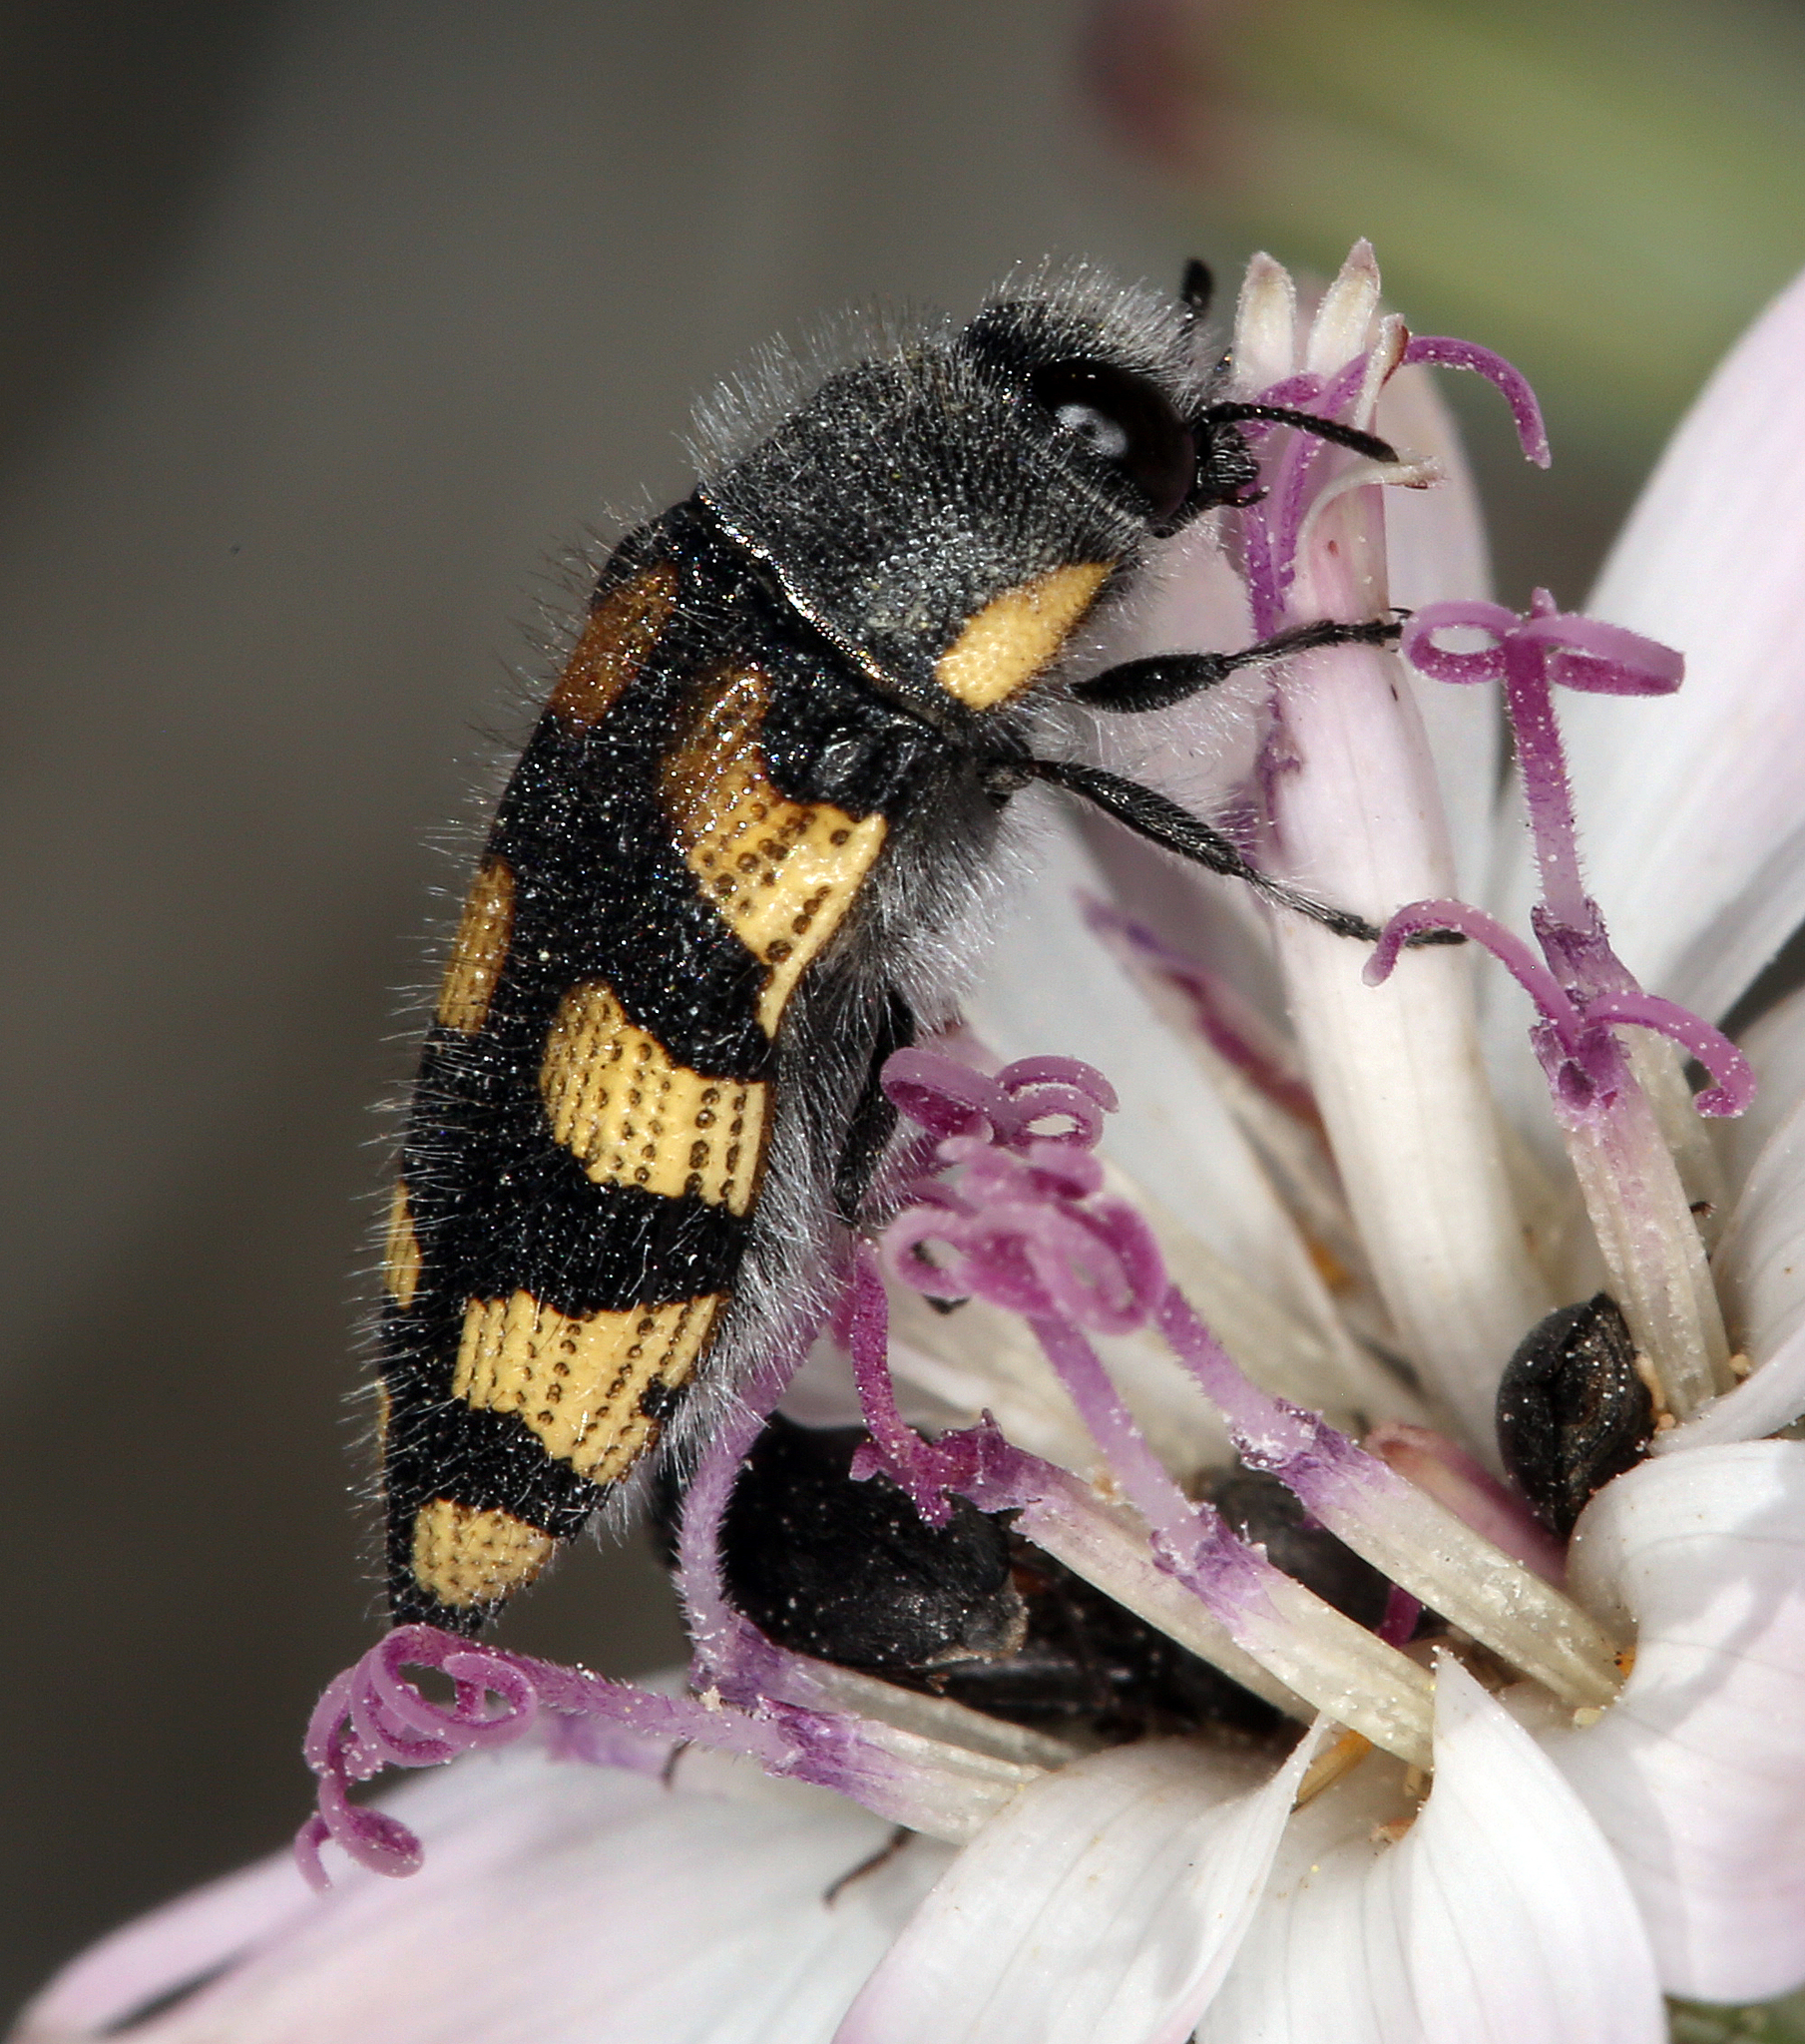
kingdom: Animalia
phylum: Arthropoda
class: Insecta
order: Coleoptera
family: Buprestidae
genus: Acmaeodera
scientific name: Acmaeodera tuta
